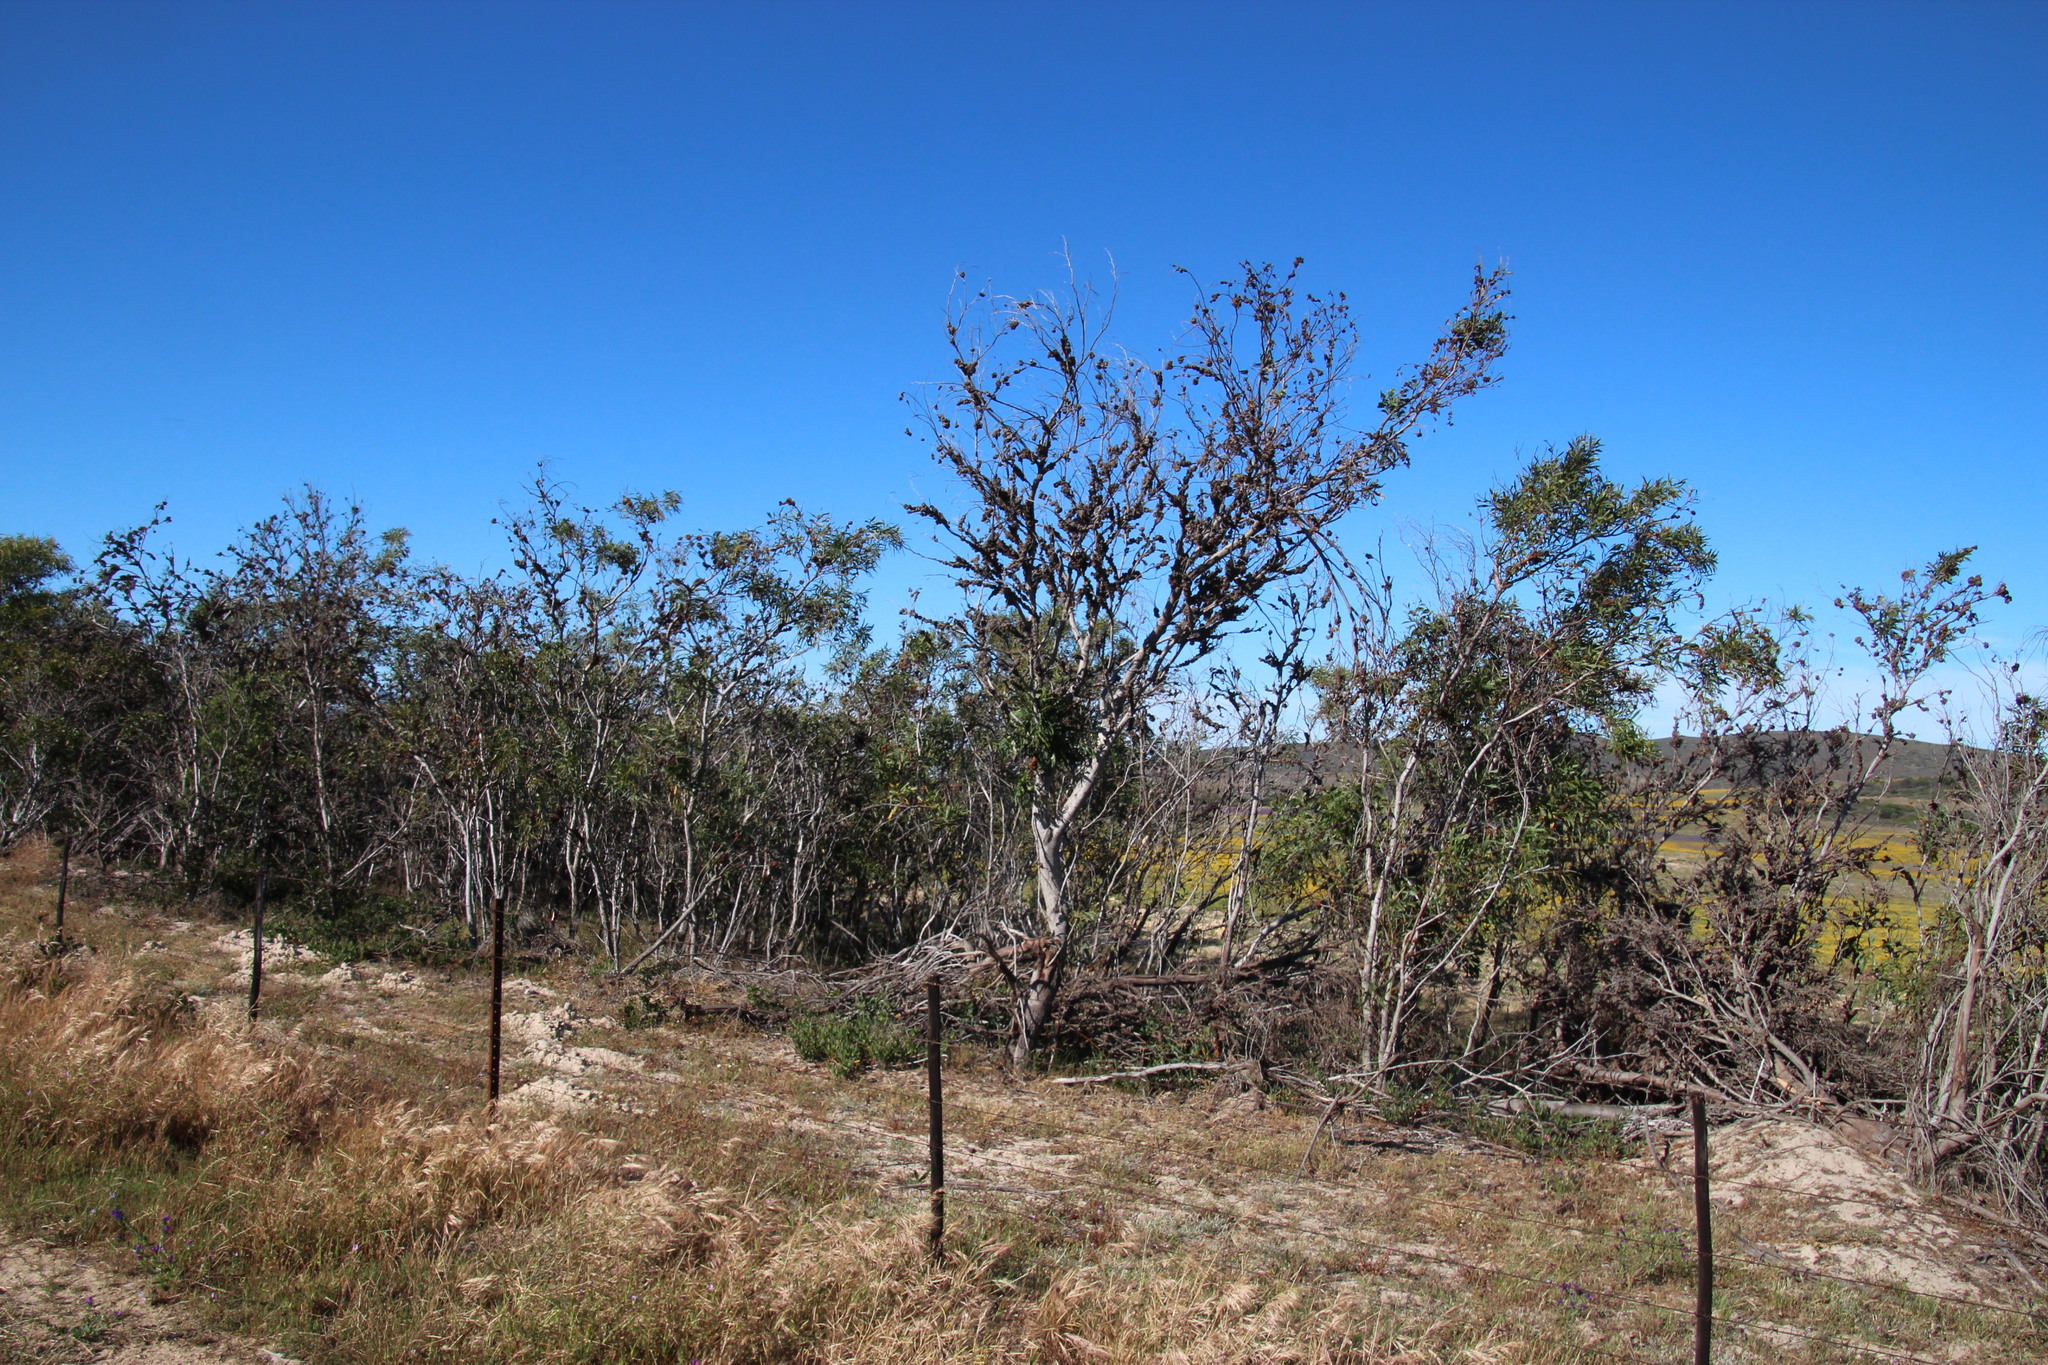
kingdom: Plantae
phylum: Tracheophyta
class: Magnoliopsida
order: Fabales
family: Fabaceae
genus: Acacia
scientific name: Acacia saligna
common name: Orange wattle
